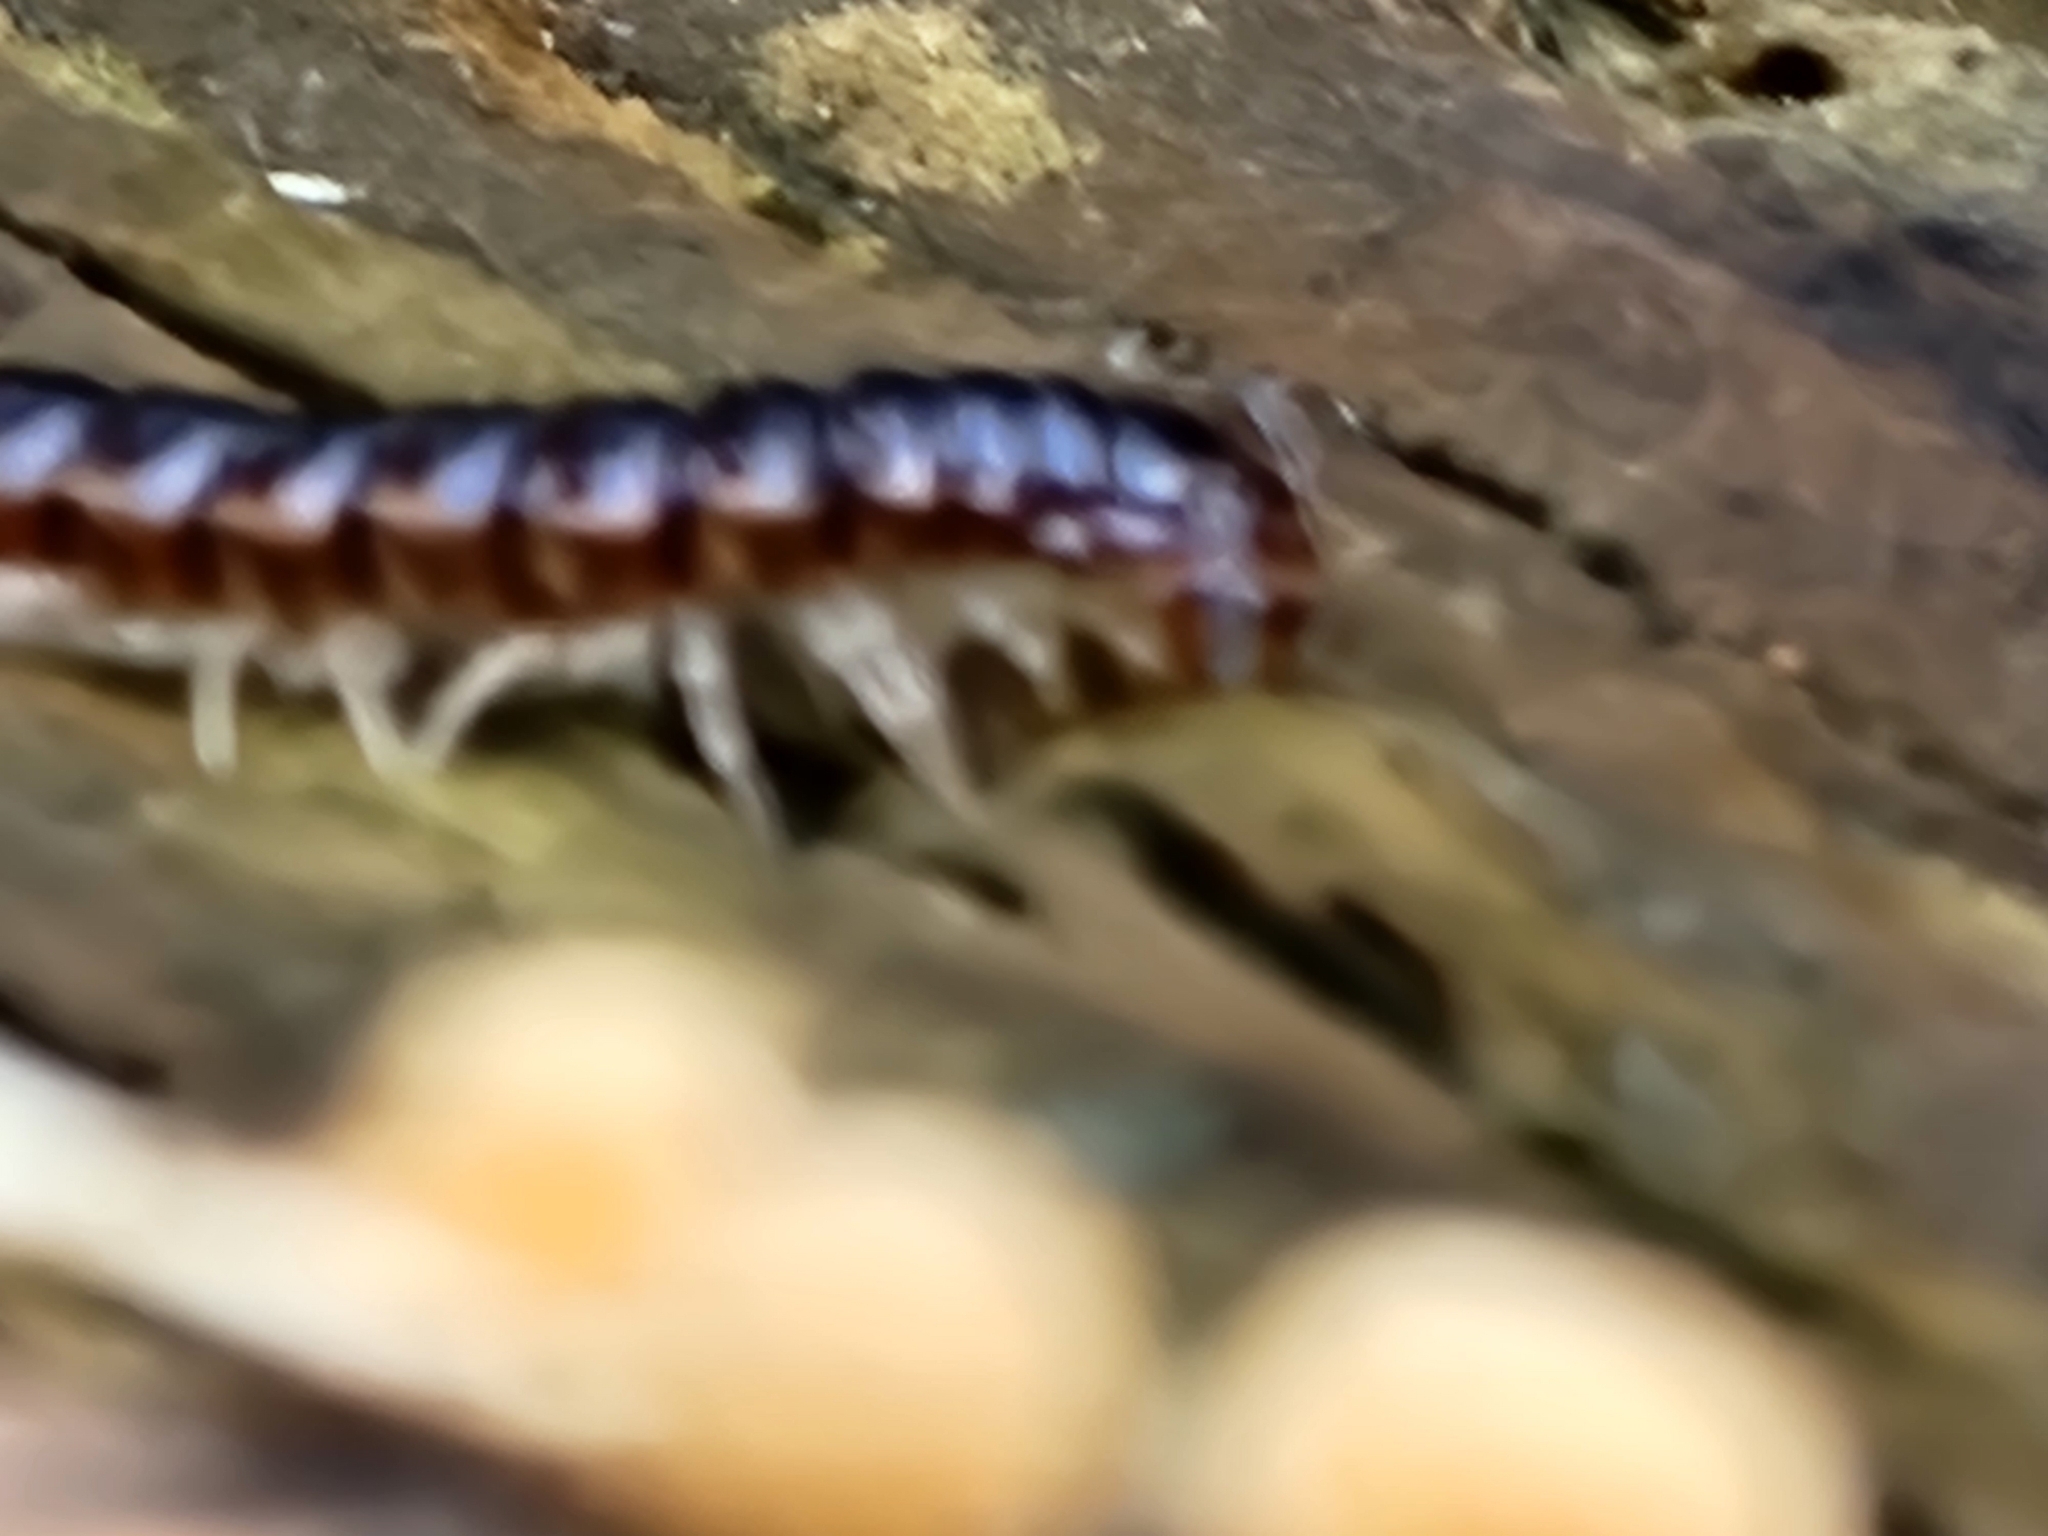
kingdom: Animalia
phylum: Arthropoda
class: Diplopoda
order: Polydesmida
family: Paradoxosomatidae
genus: Oxidus
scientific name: Oxidus gracilis
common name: Greenhouse millipede
